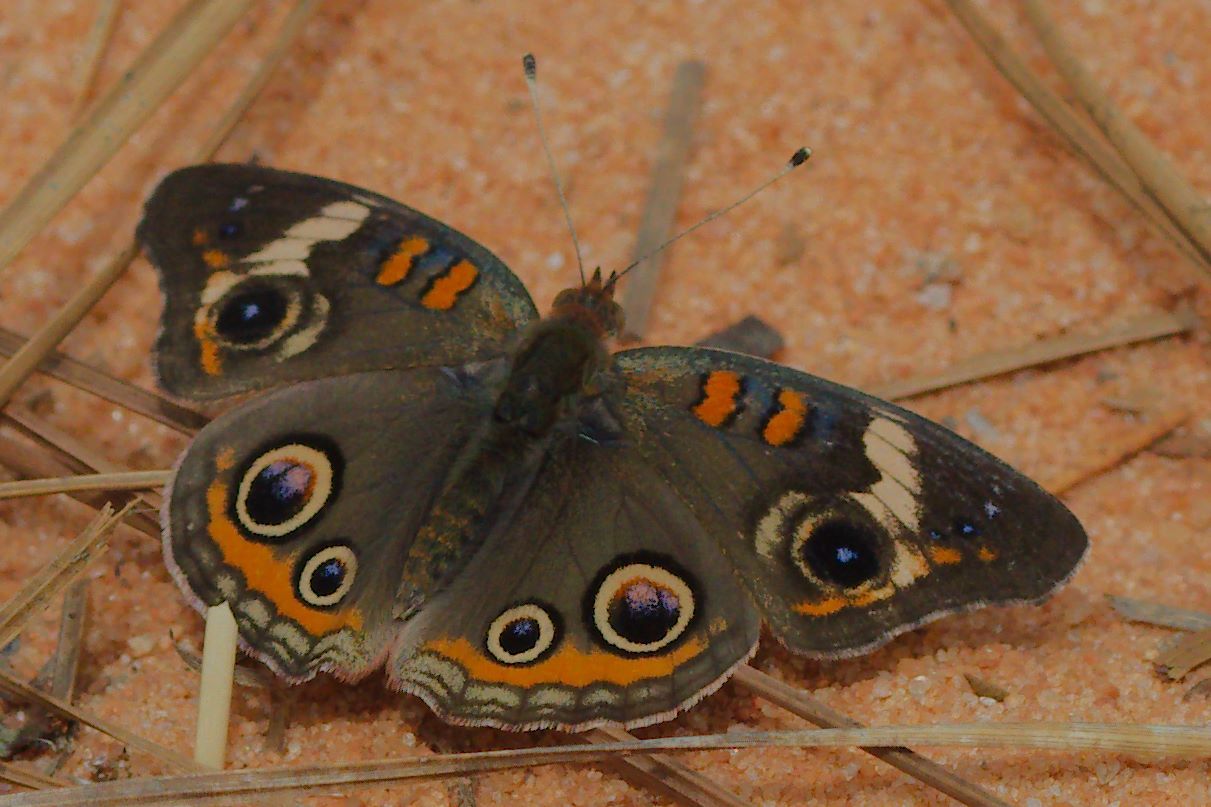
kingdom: Animalia
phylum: Arthropoda
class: Insecta
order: Lepidoptera
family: Nymphalidae
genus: Junonia
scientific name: Junonia coenia
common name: Common buckeye
